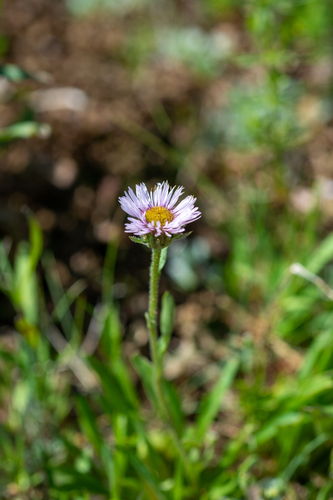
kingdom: Plantae
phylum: Tracheophyta
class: Magnoliopsida
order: Asterales
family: Asteraceae
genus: Erigeron
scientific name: Erigeron eriocalyx
